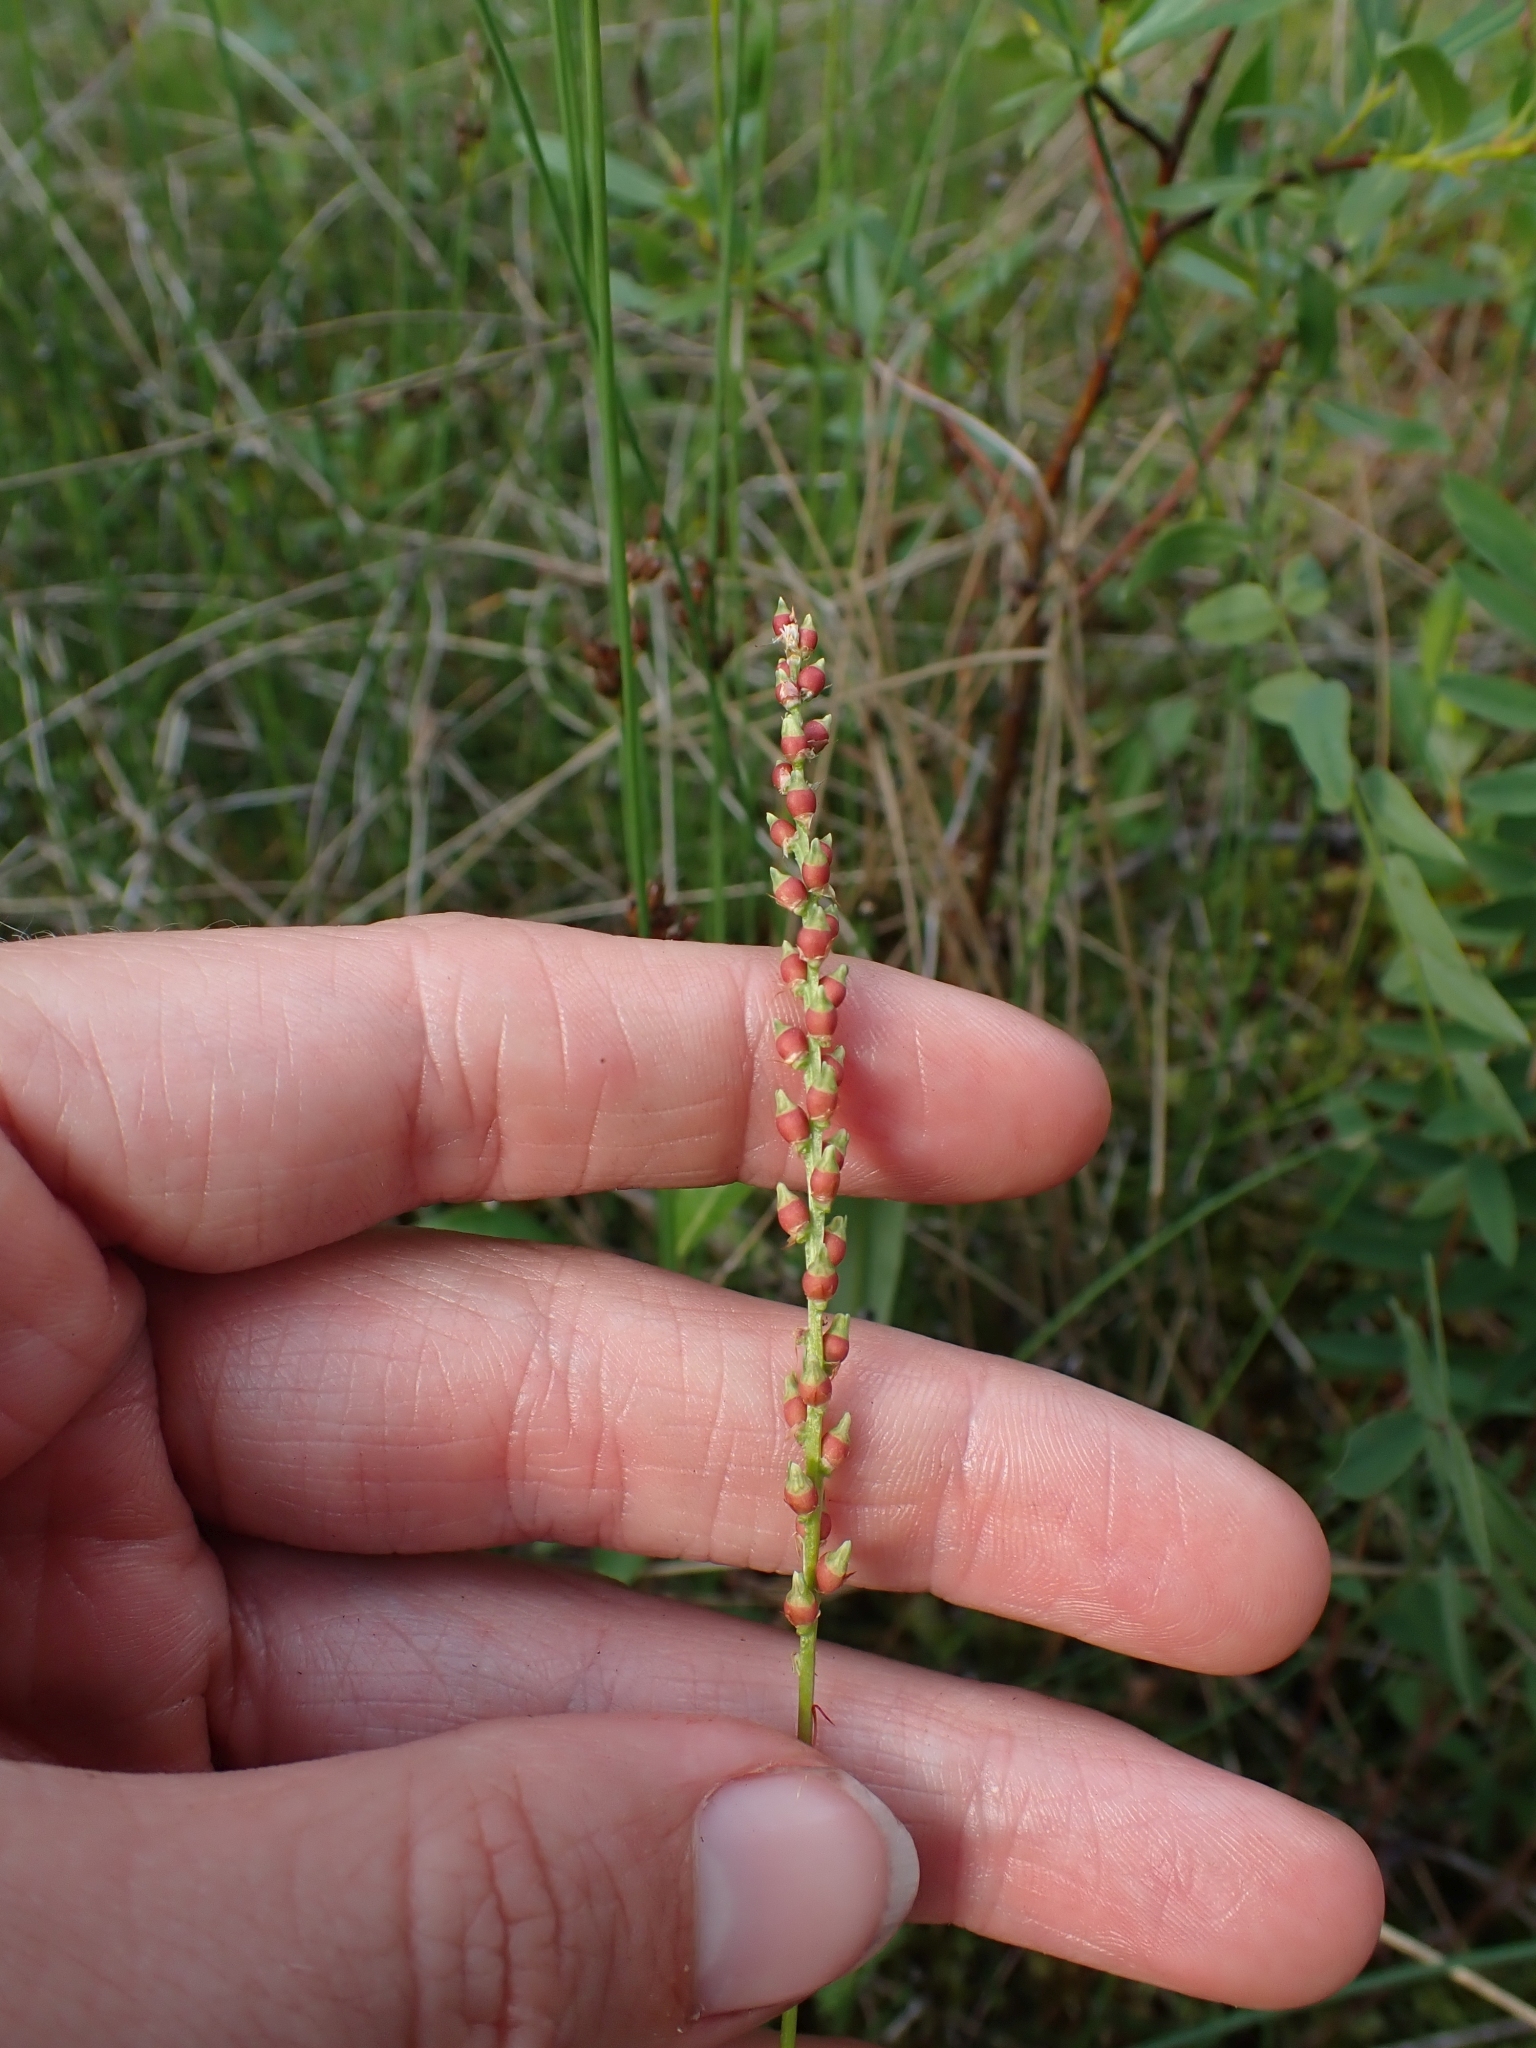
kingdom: Plantae
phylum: Tracheophyta
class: Magnoliopsida
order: Caryophyllales
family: Polygonaceae
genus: Bistorta
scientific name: Bistorta vivipara
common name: Alpine bistort
